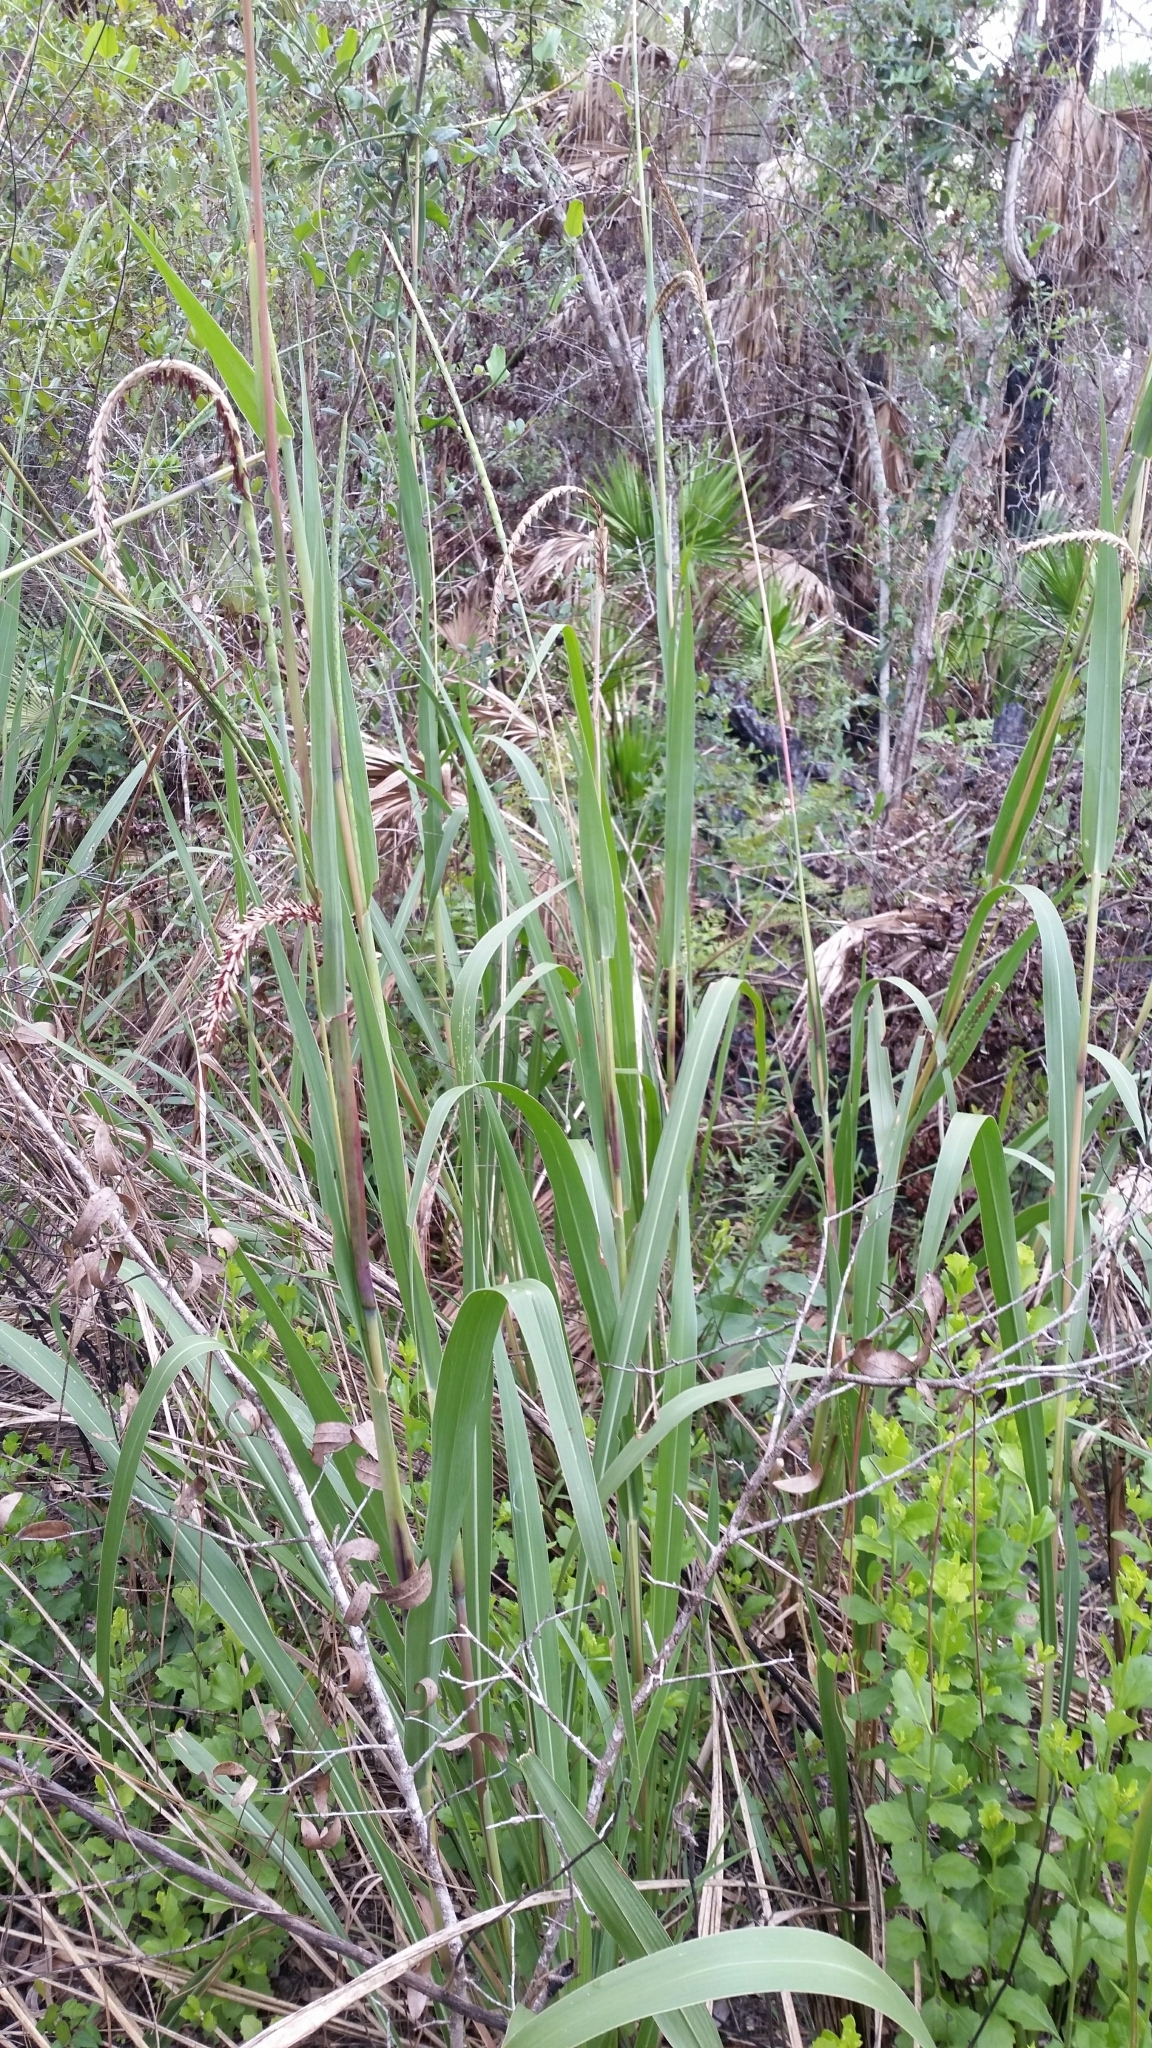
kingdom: Plantae
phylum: Tracheophyta
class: Liliopsida
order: Poales
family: Poaceae
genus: Tripsacum
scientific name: Tripsacum dactyloides
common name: Buffalo-grass
